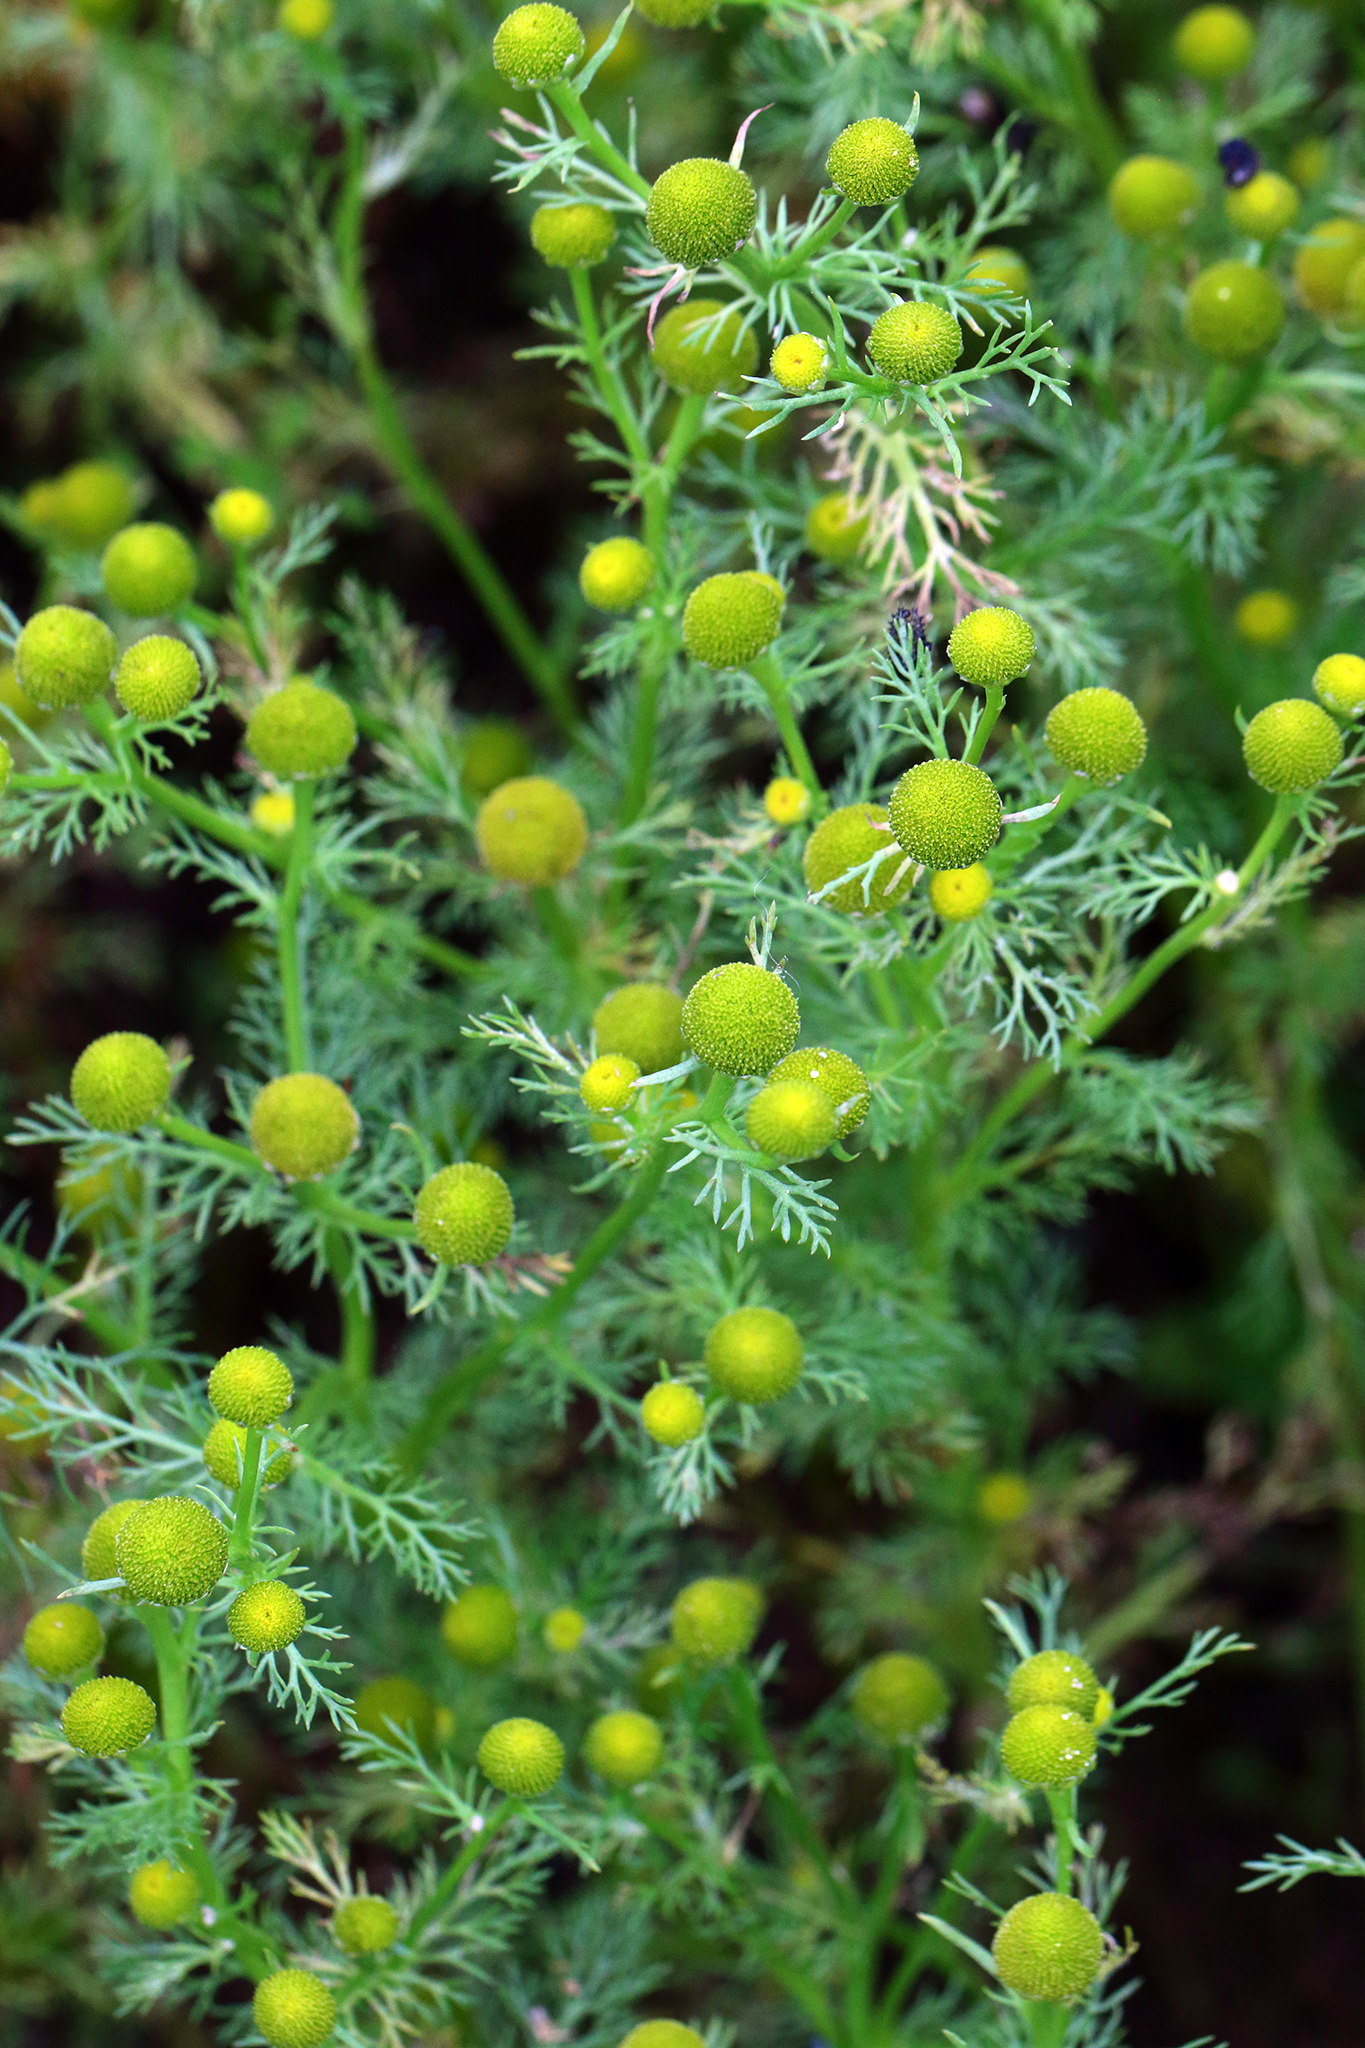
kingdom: Plantae
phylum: Tracheophyta
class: Magnoliopsida
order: Asterales
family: Asteraceae
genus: Matricaria
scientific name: Matricaria discoidea
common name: Disc mayweed
